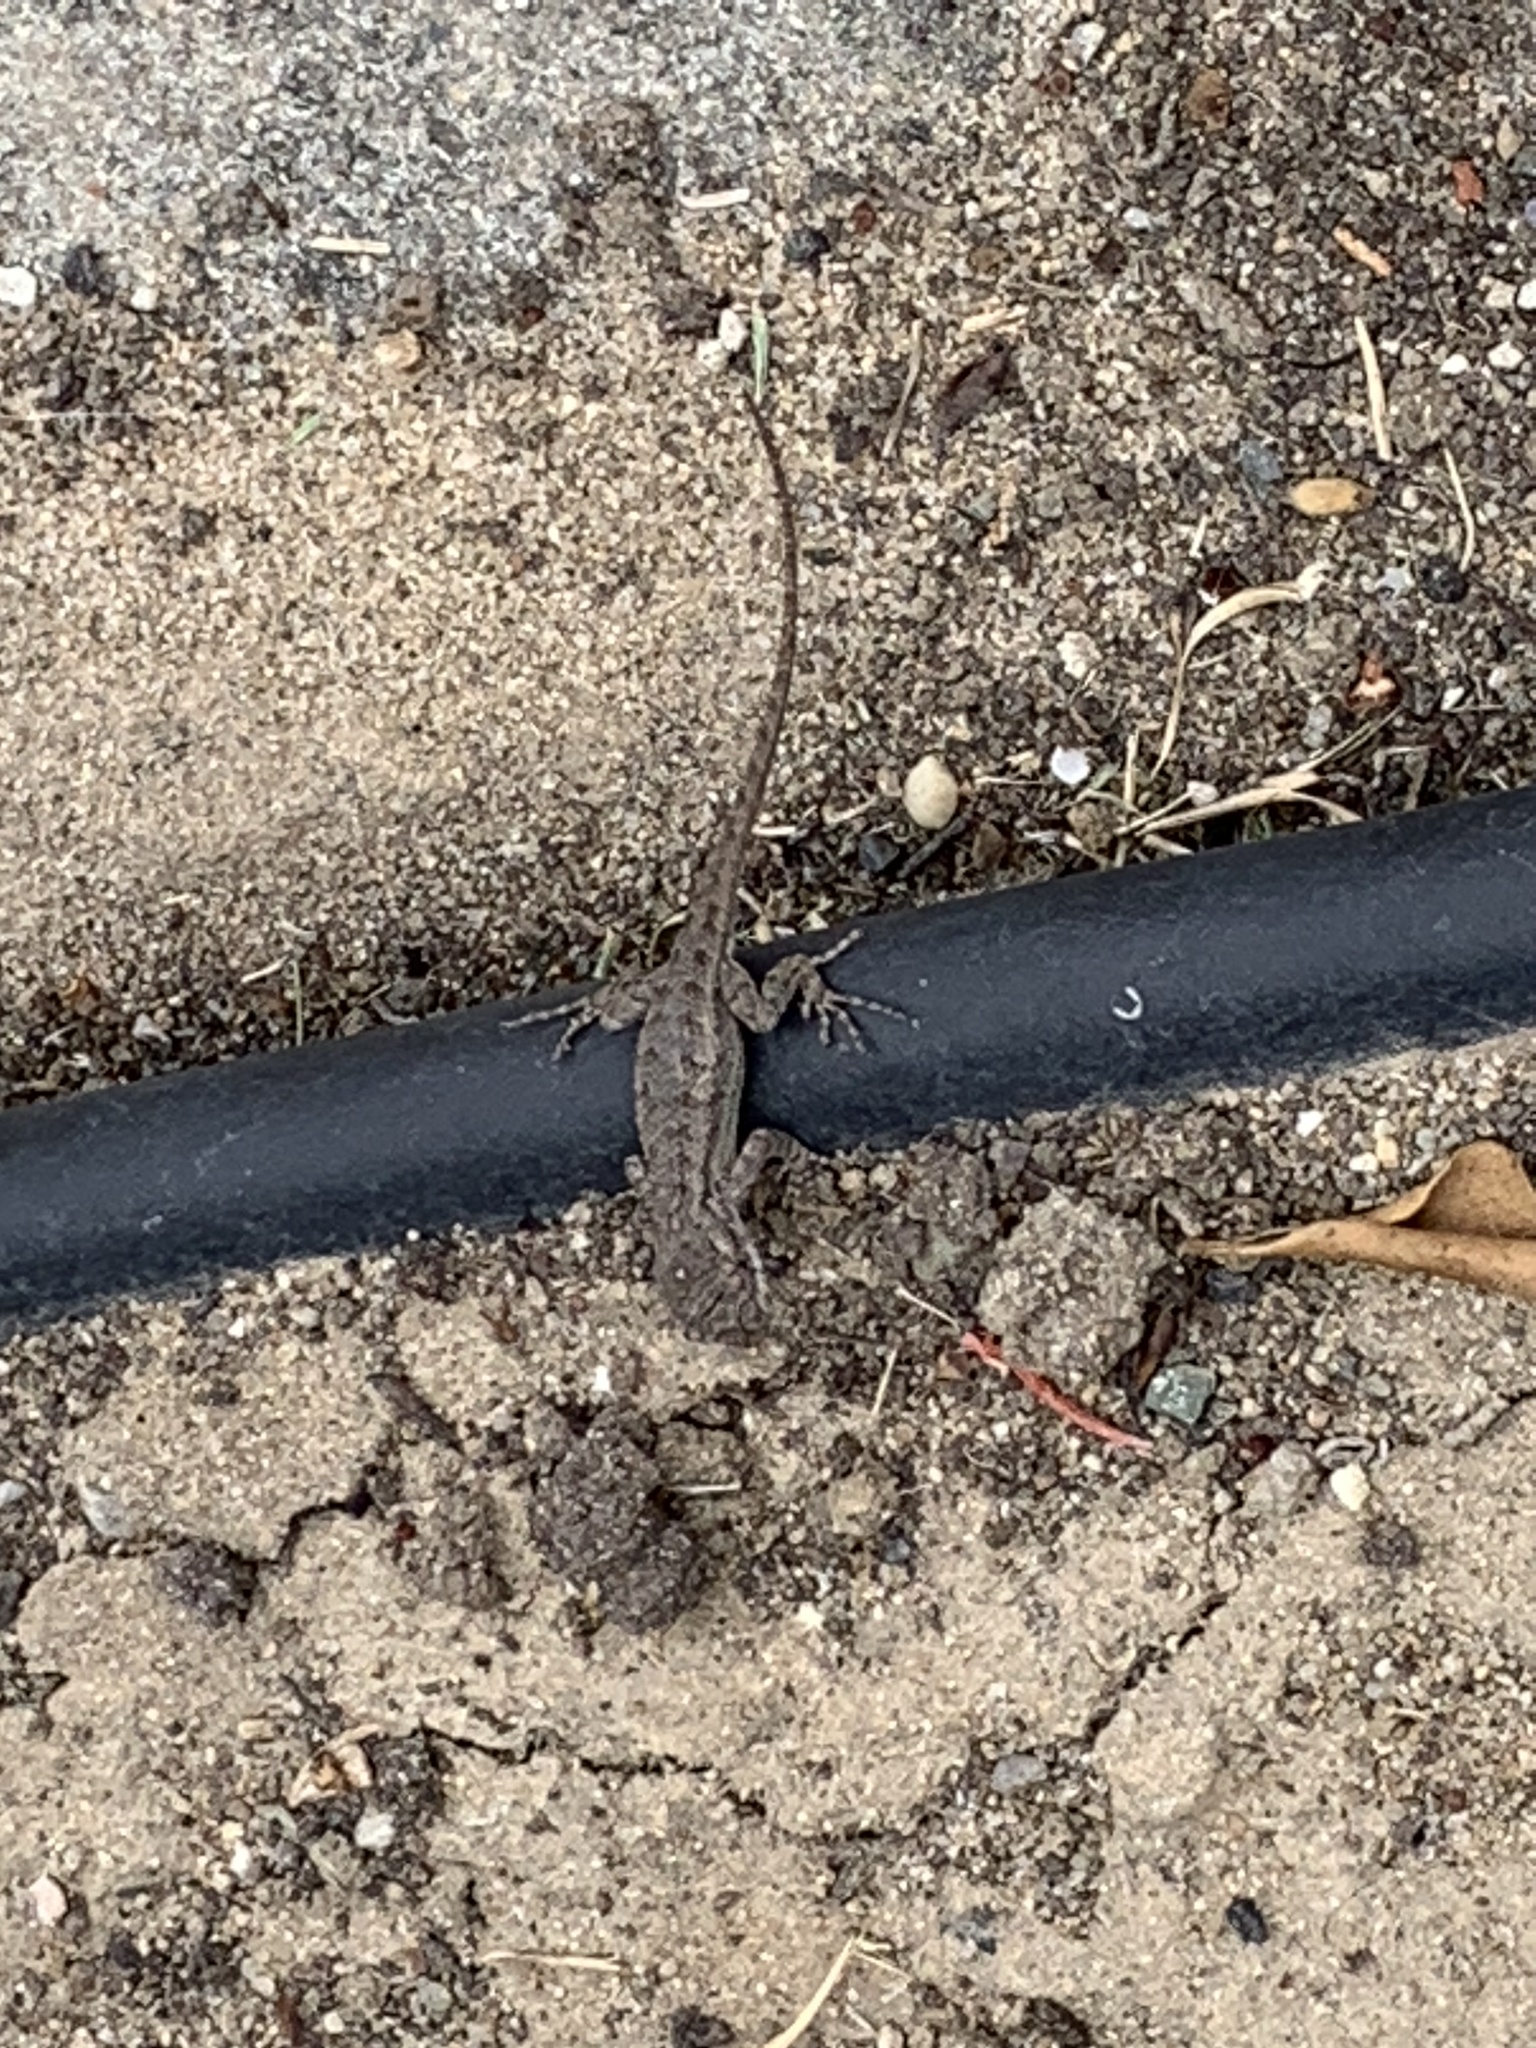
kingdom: Animalia
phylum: Chordata
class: Squamata
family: Phrynosomatidae
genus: Sceloporus
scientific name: Sceloporus occidentalis
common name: Western fence lizard
